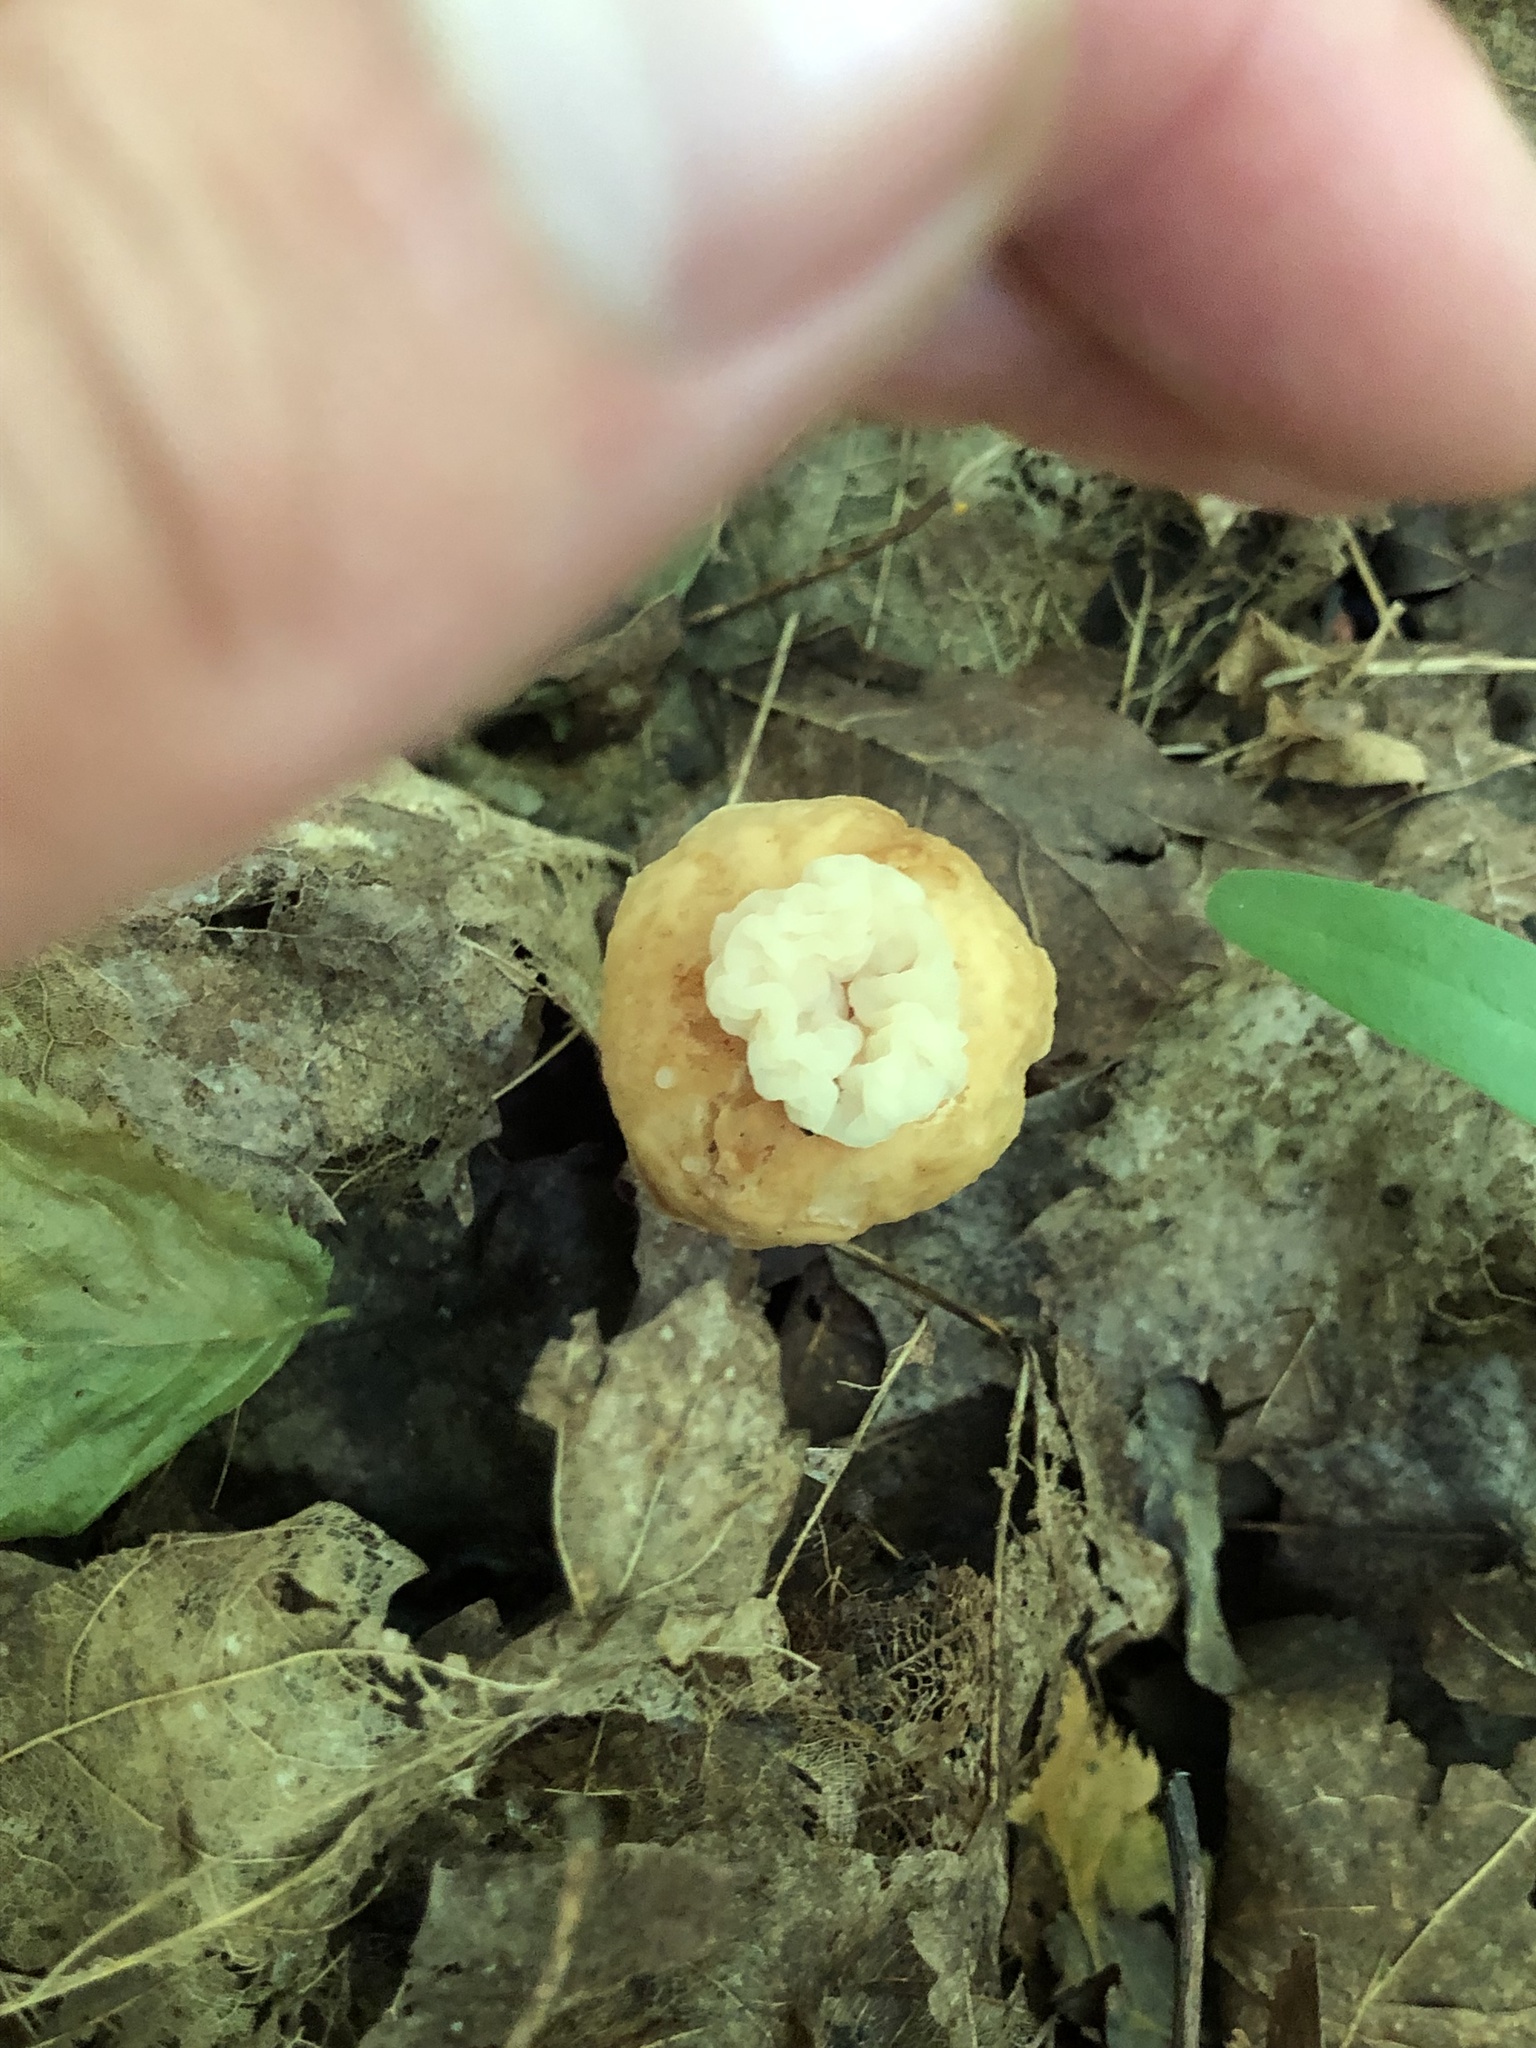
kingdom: Fungi
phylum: Basidiomycota
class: Tremellomycetes
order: Filobasidiales
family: Filobasidiaceae
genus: Syzygospora
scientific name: Syzygospora mycetophila
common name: Collybia clouds
